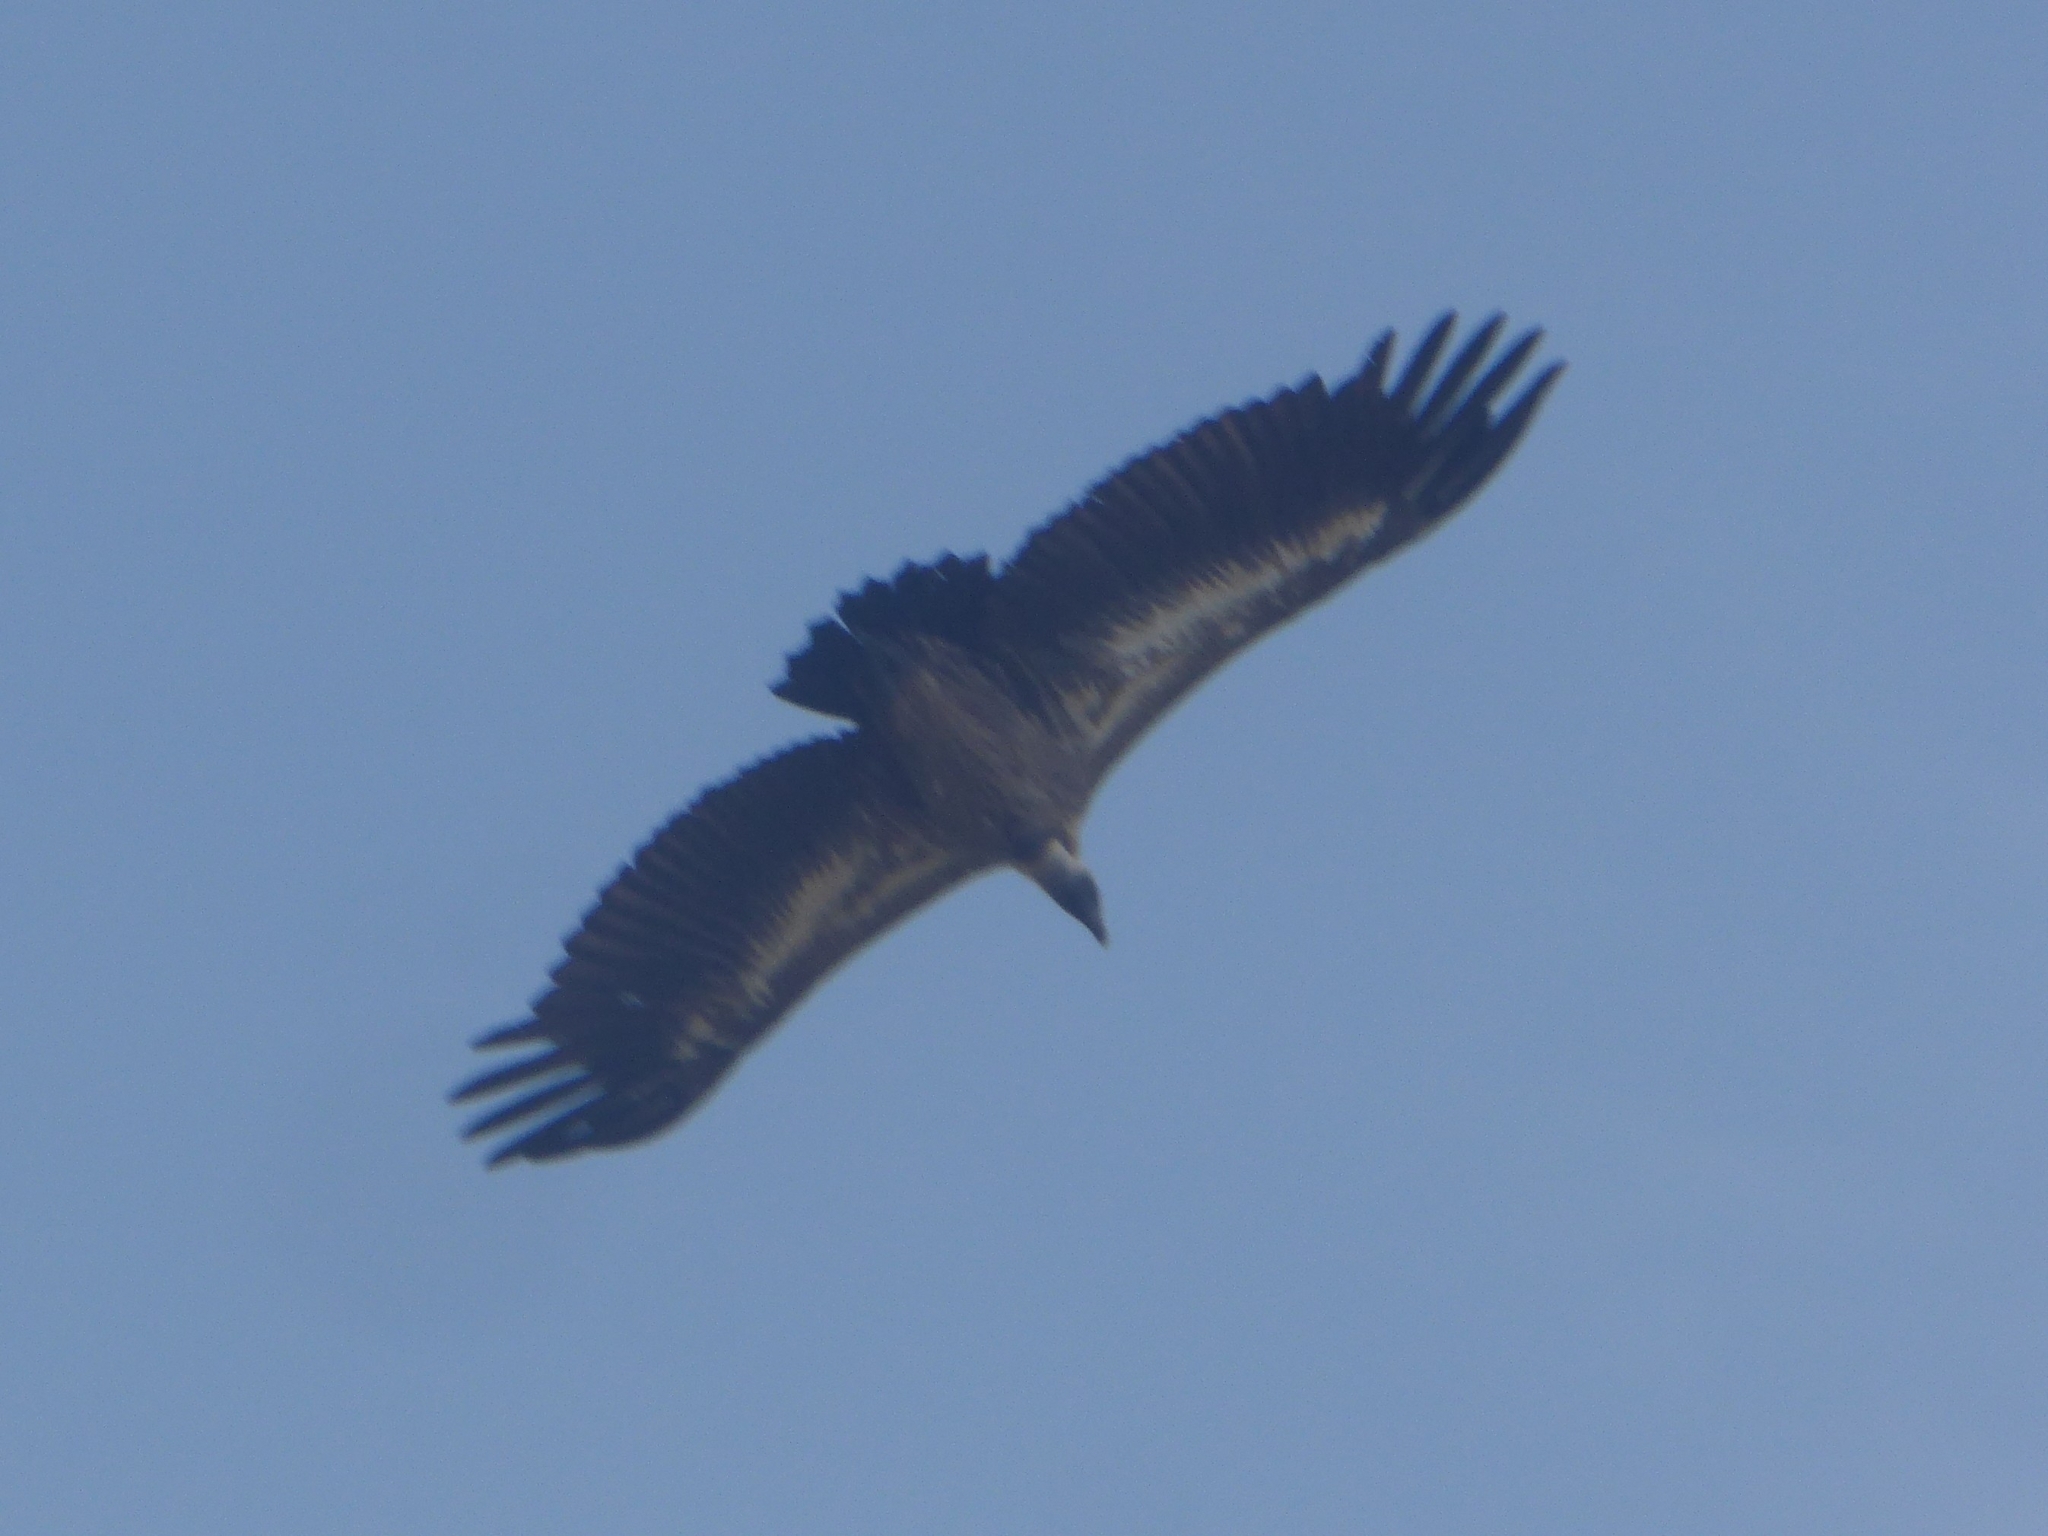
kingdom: Animalia
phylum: Chordata
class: Aves
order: Accipitriformes
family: Accipitridae
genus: Gyps
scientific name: Gyps africanus
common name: White-backed vulture
